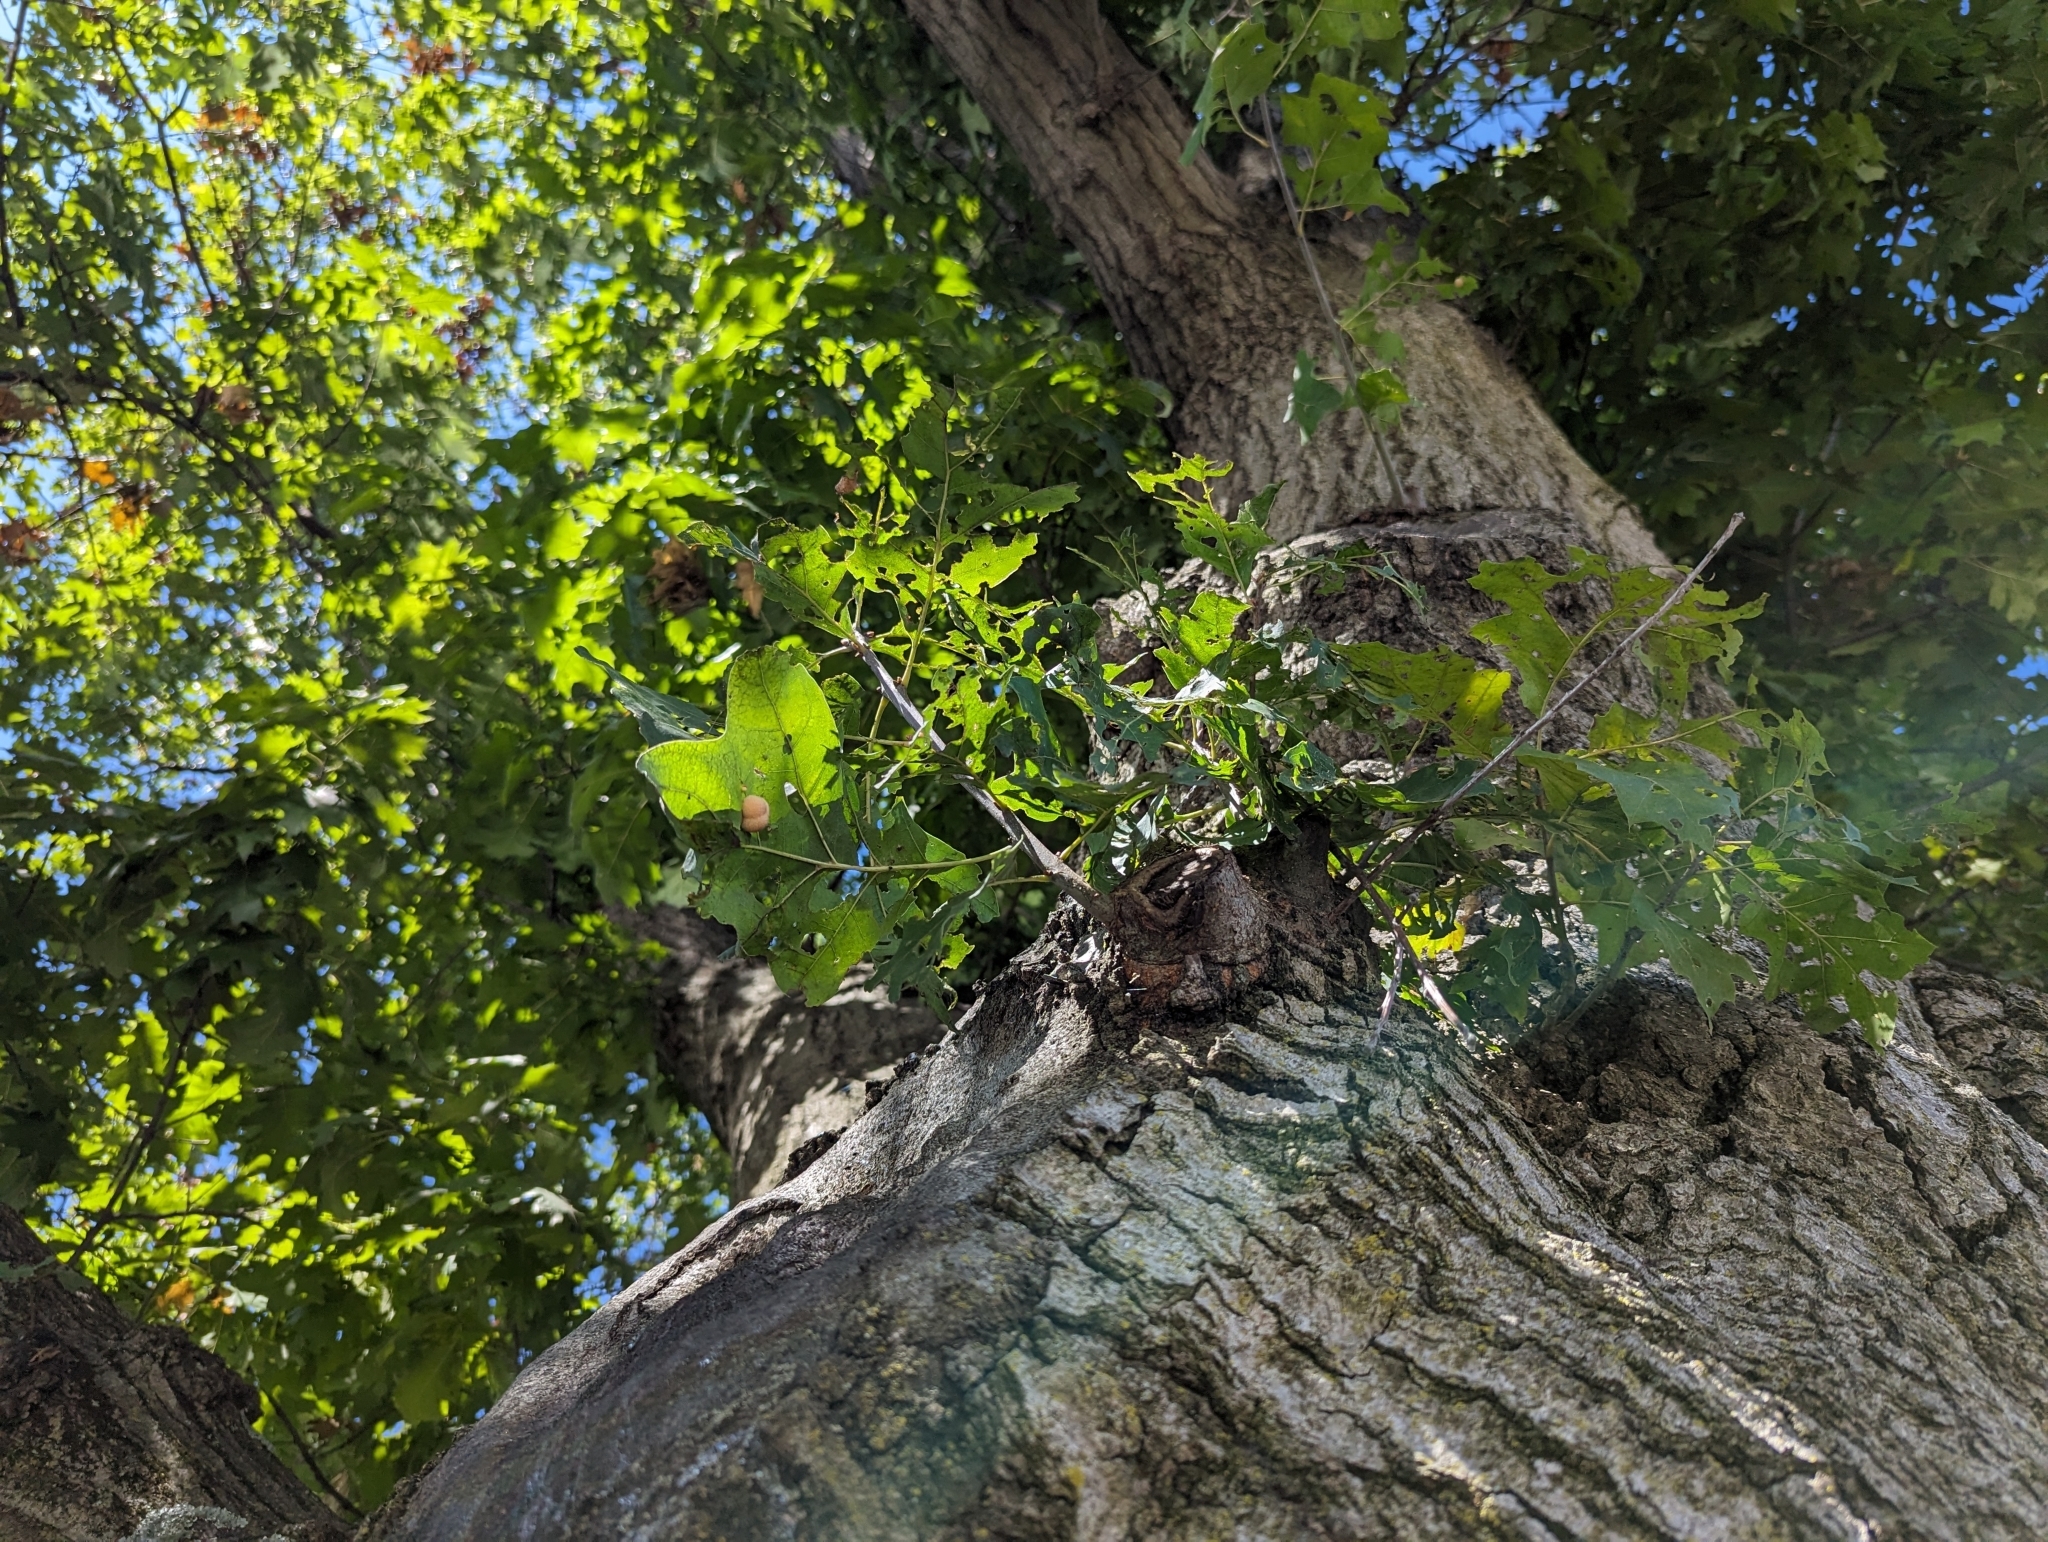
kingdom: Animalia
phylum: Arthropoda
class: Insecta
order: Hymenoptera
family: Cynipidae
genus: Zopheroteras
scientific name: Zopheroteras
